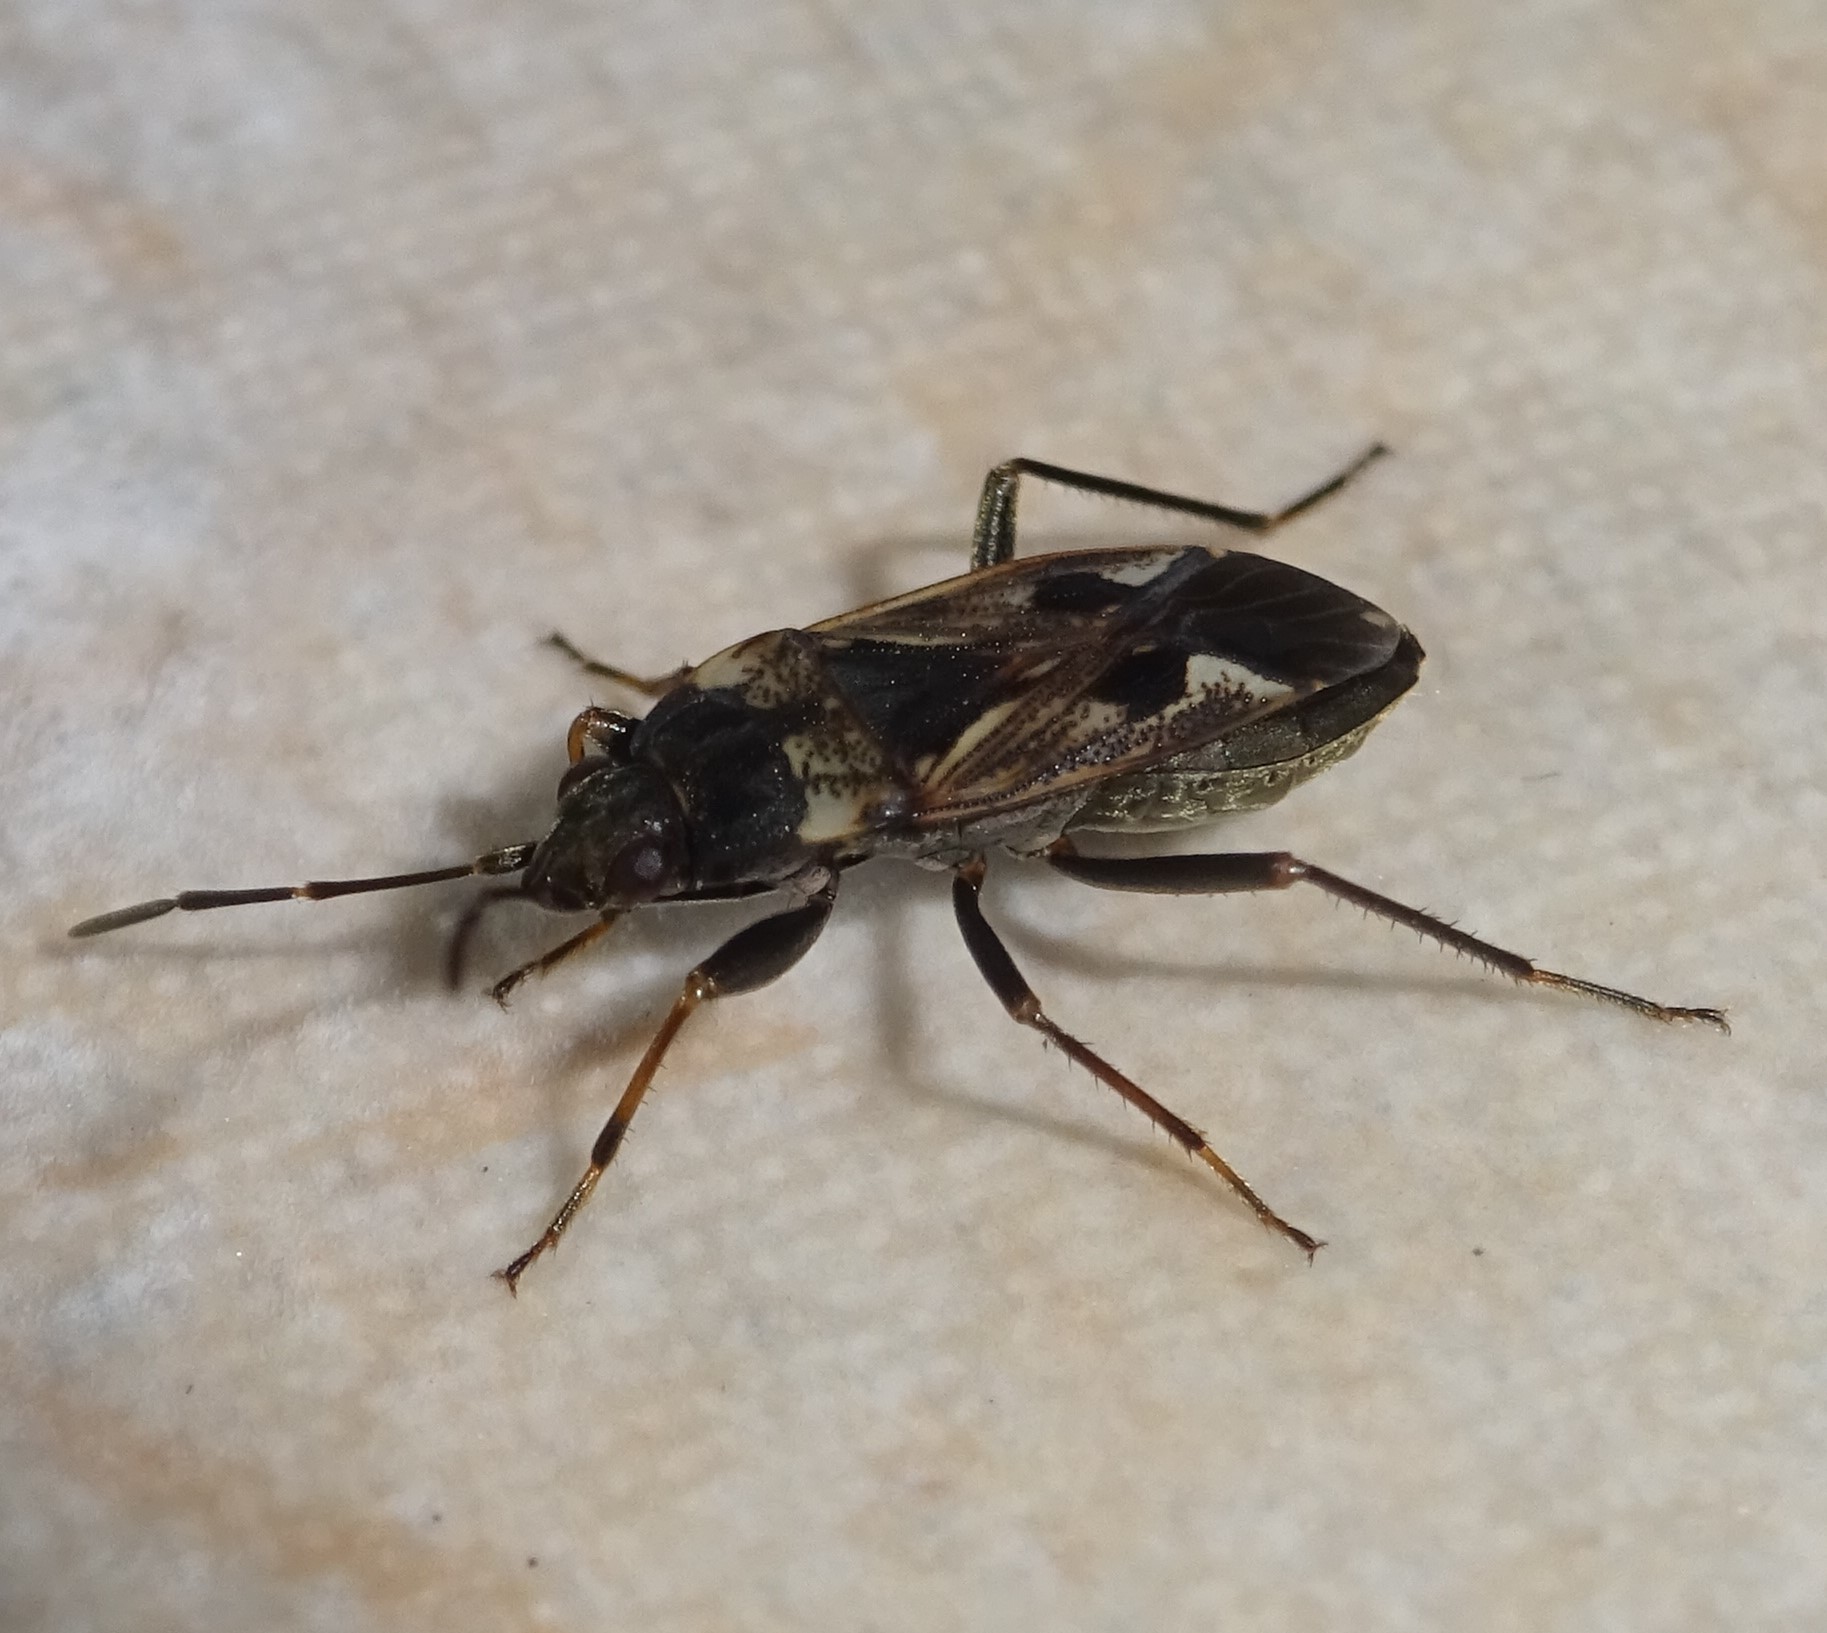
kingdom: Animalia
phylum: Arthropoda
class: Insecta
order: Hemiptera
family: Rhyparochromidae
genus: Rhyparochromus
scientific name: Rhyparochromus vulgaris
